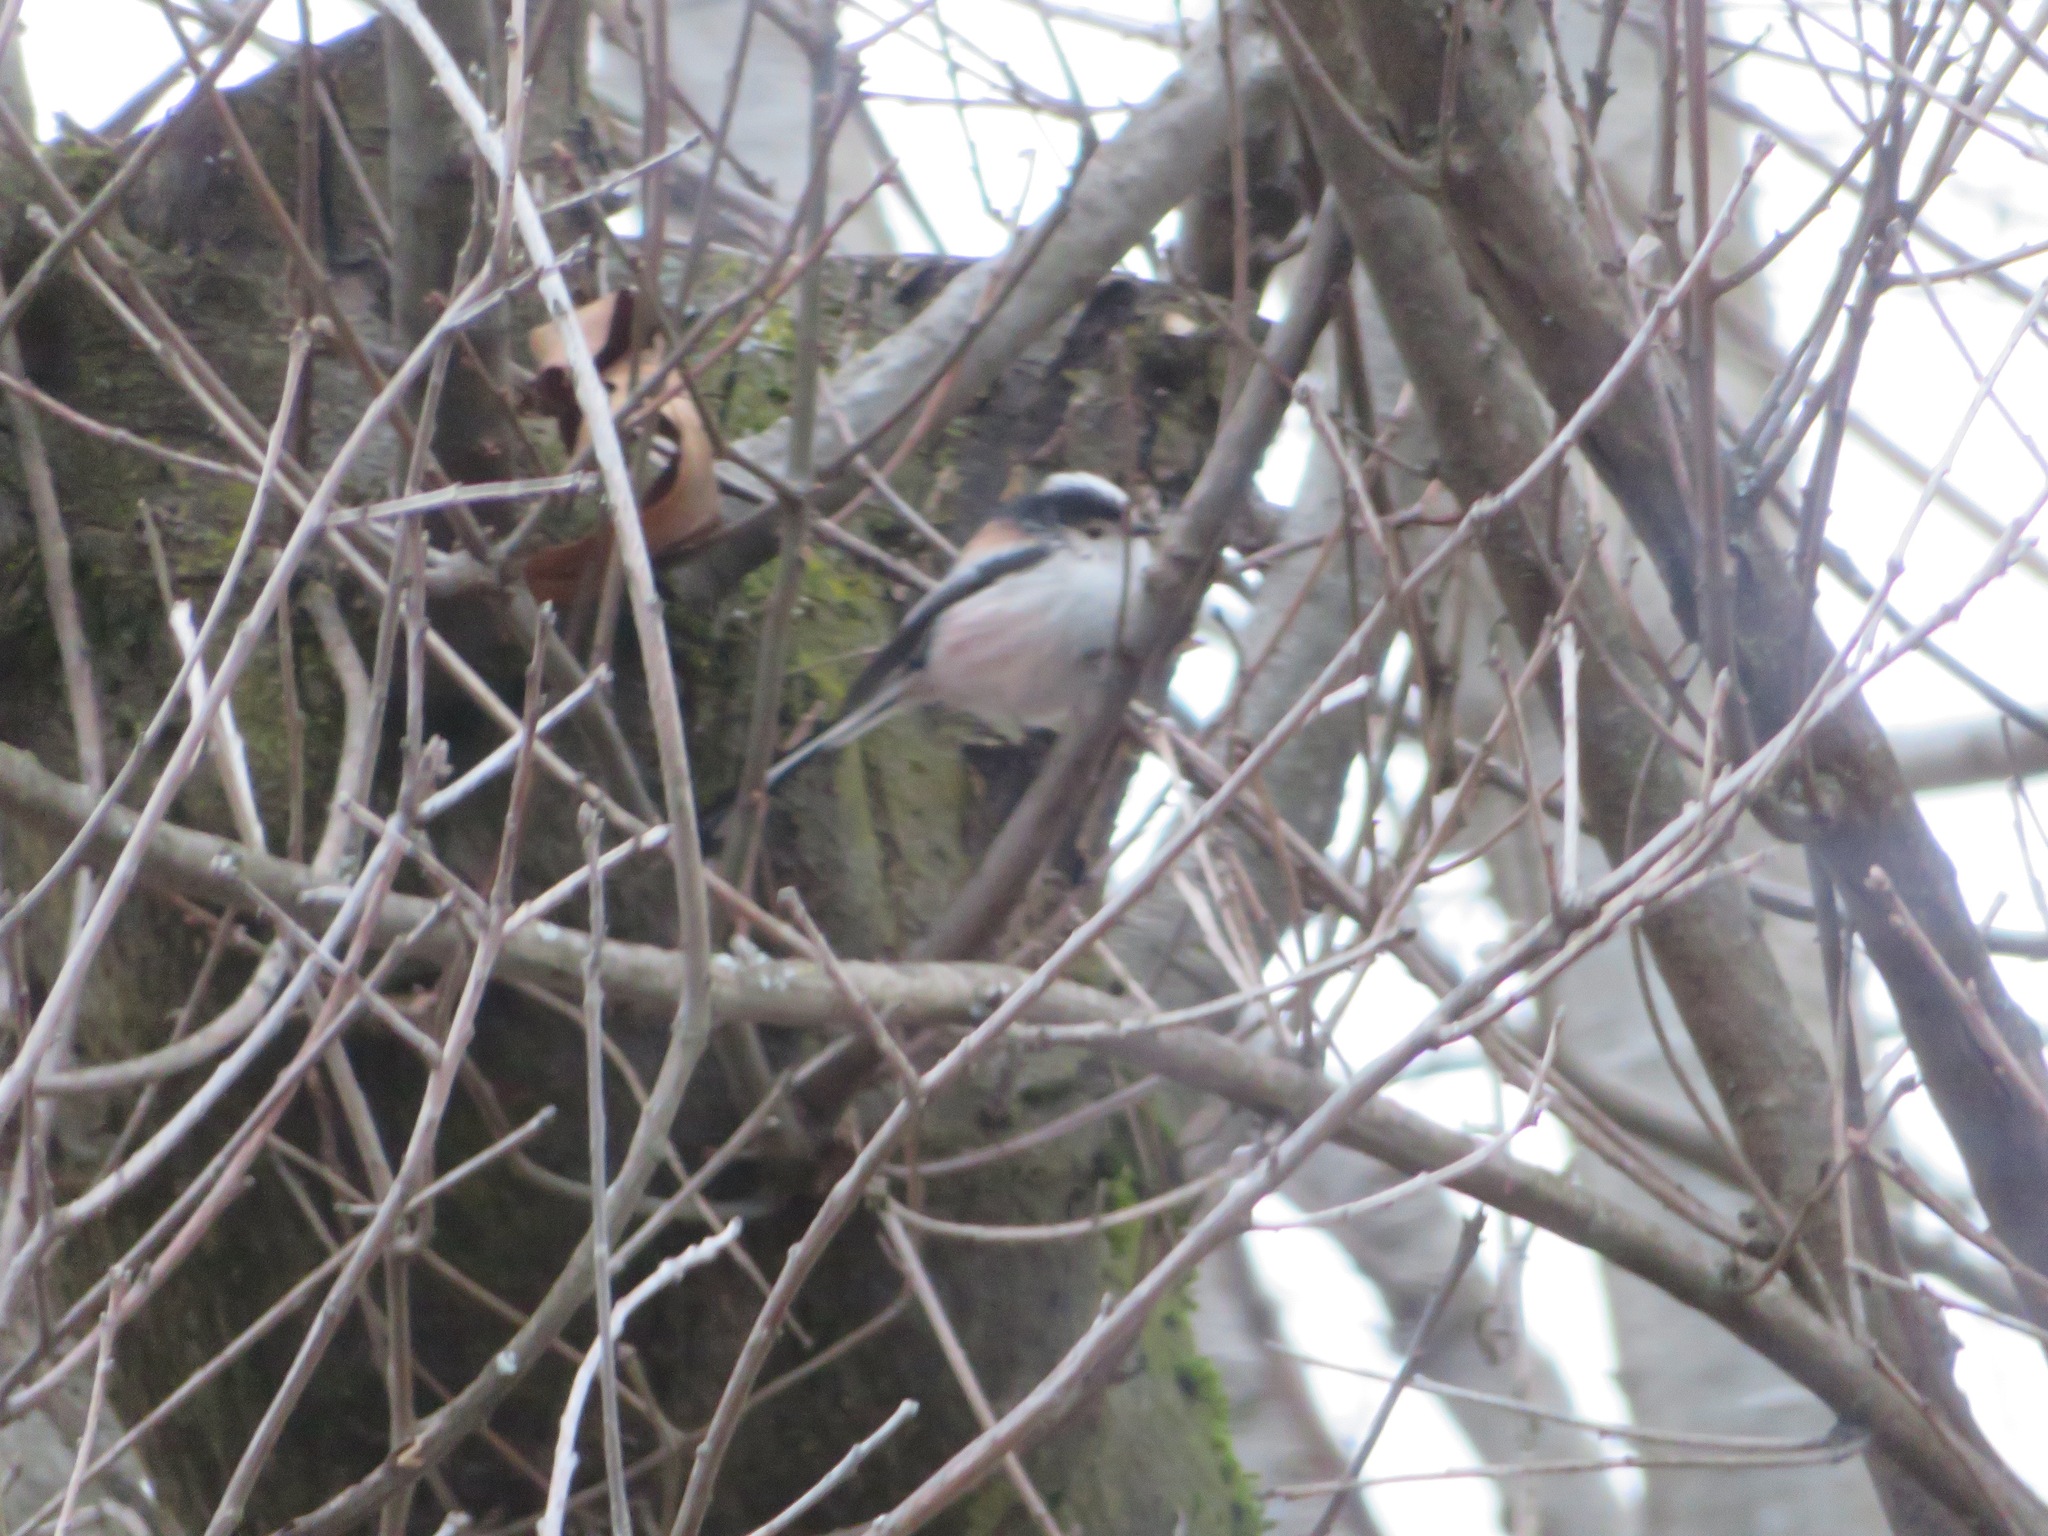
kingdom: Animalia
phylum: Chordata
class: Aves
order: Passeriformes
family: Aegithalidae
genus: Aegithalos
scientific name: Aegithalos caudatus
